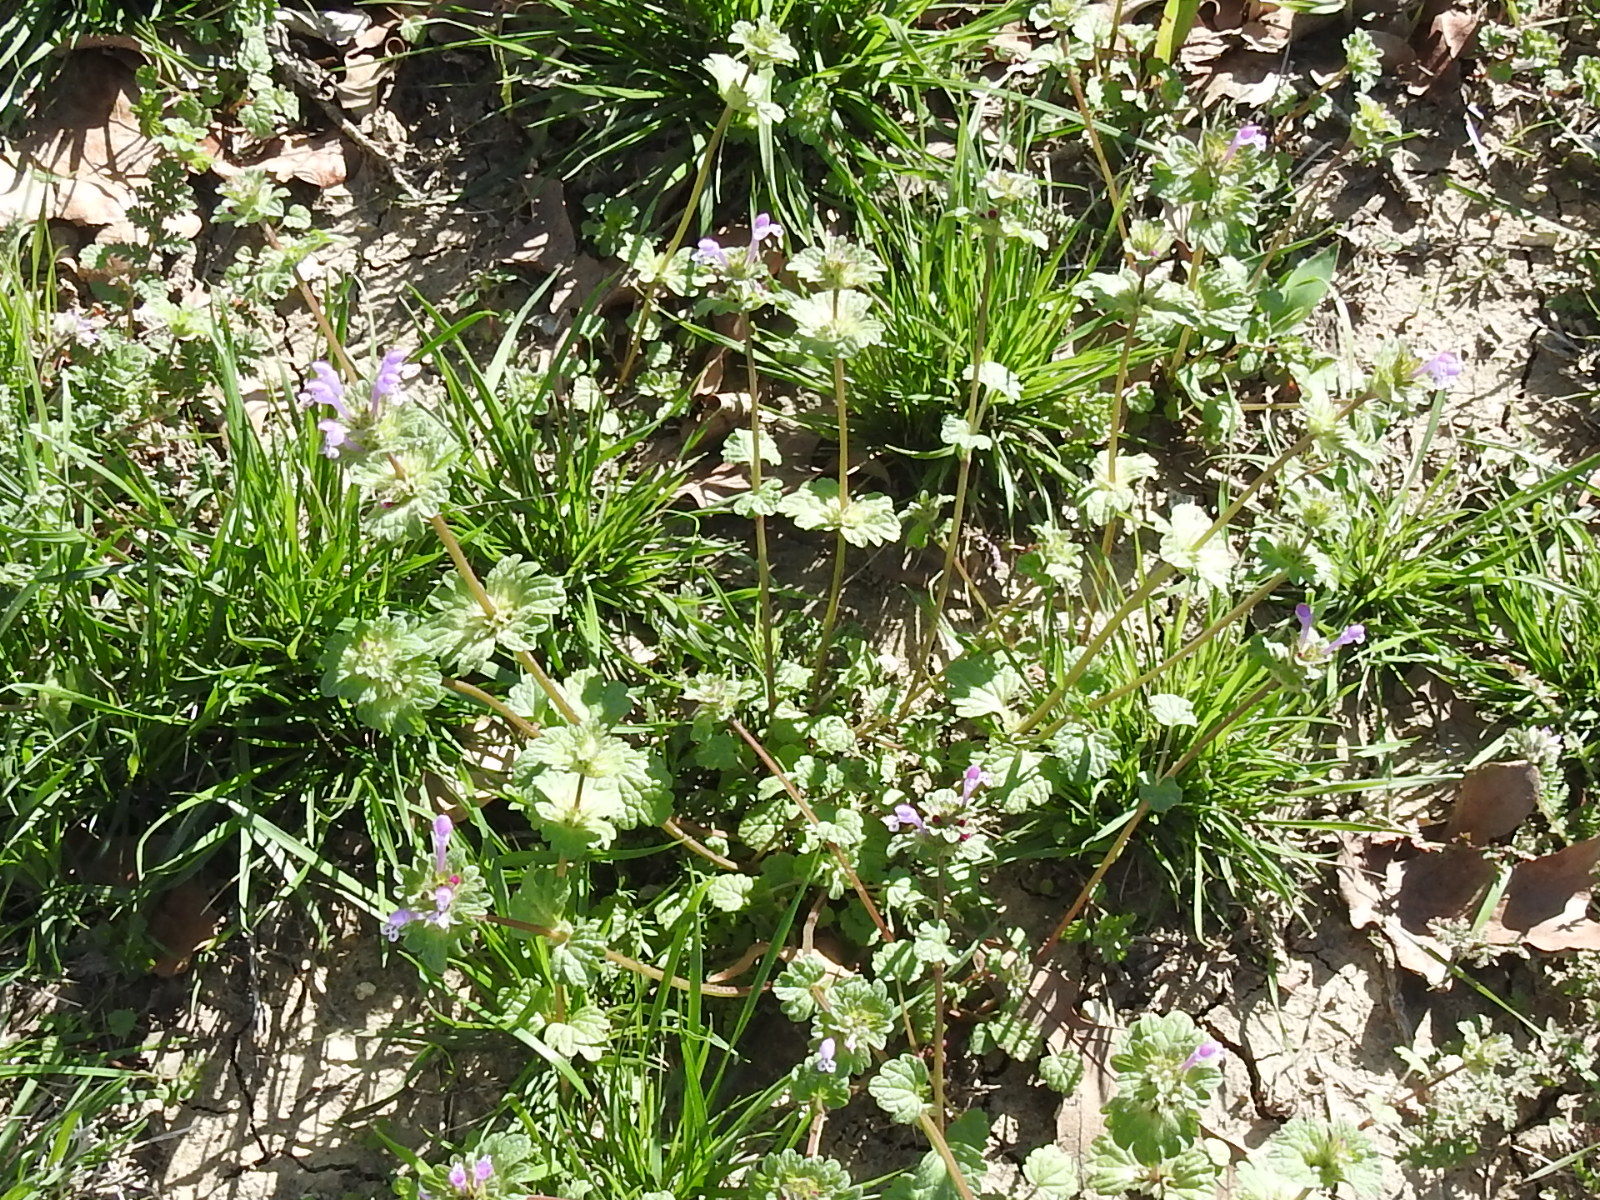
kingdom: Plantae
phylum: Tracheophyta
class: Magnoliopsida
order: Lamiales
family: Lamiaceae
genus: Lamium
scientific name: Lamium amplexicaule
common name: Henbit dead-nettle
